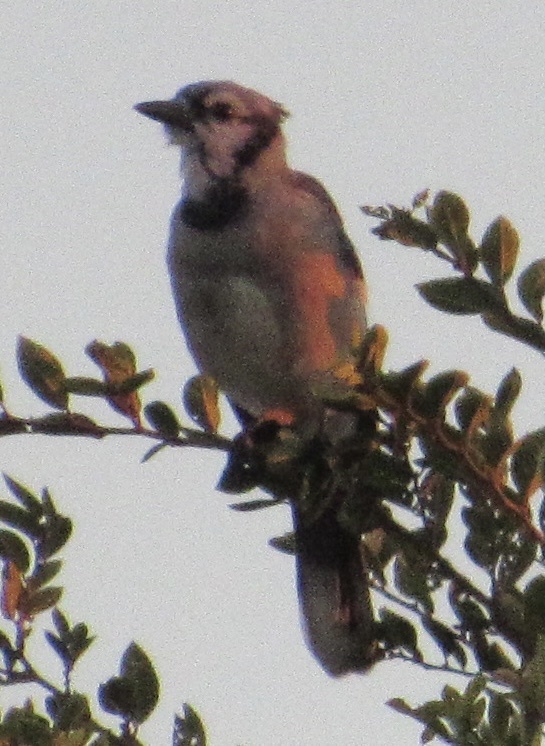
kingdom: Animalia
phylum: Chordata
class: Aves
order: Passeriformes
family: Corvidae
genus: Cyanocitta
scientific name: Cyanocitta cristata
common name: Blue jay
